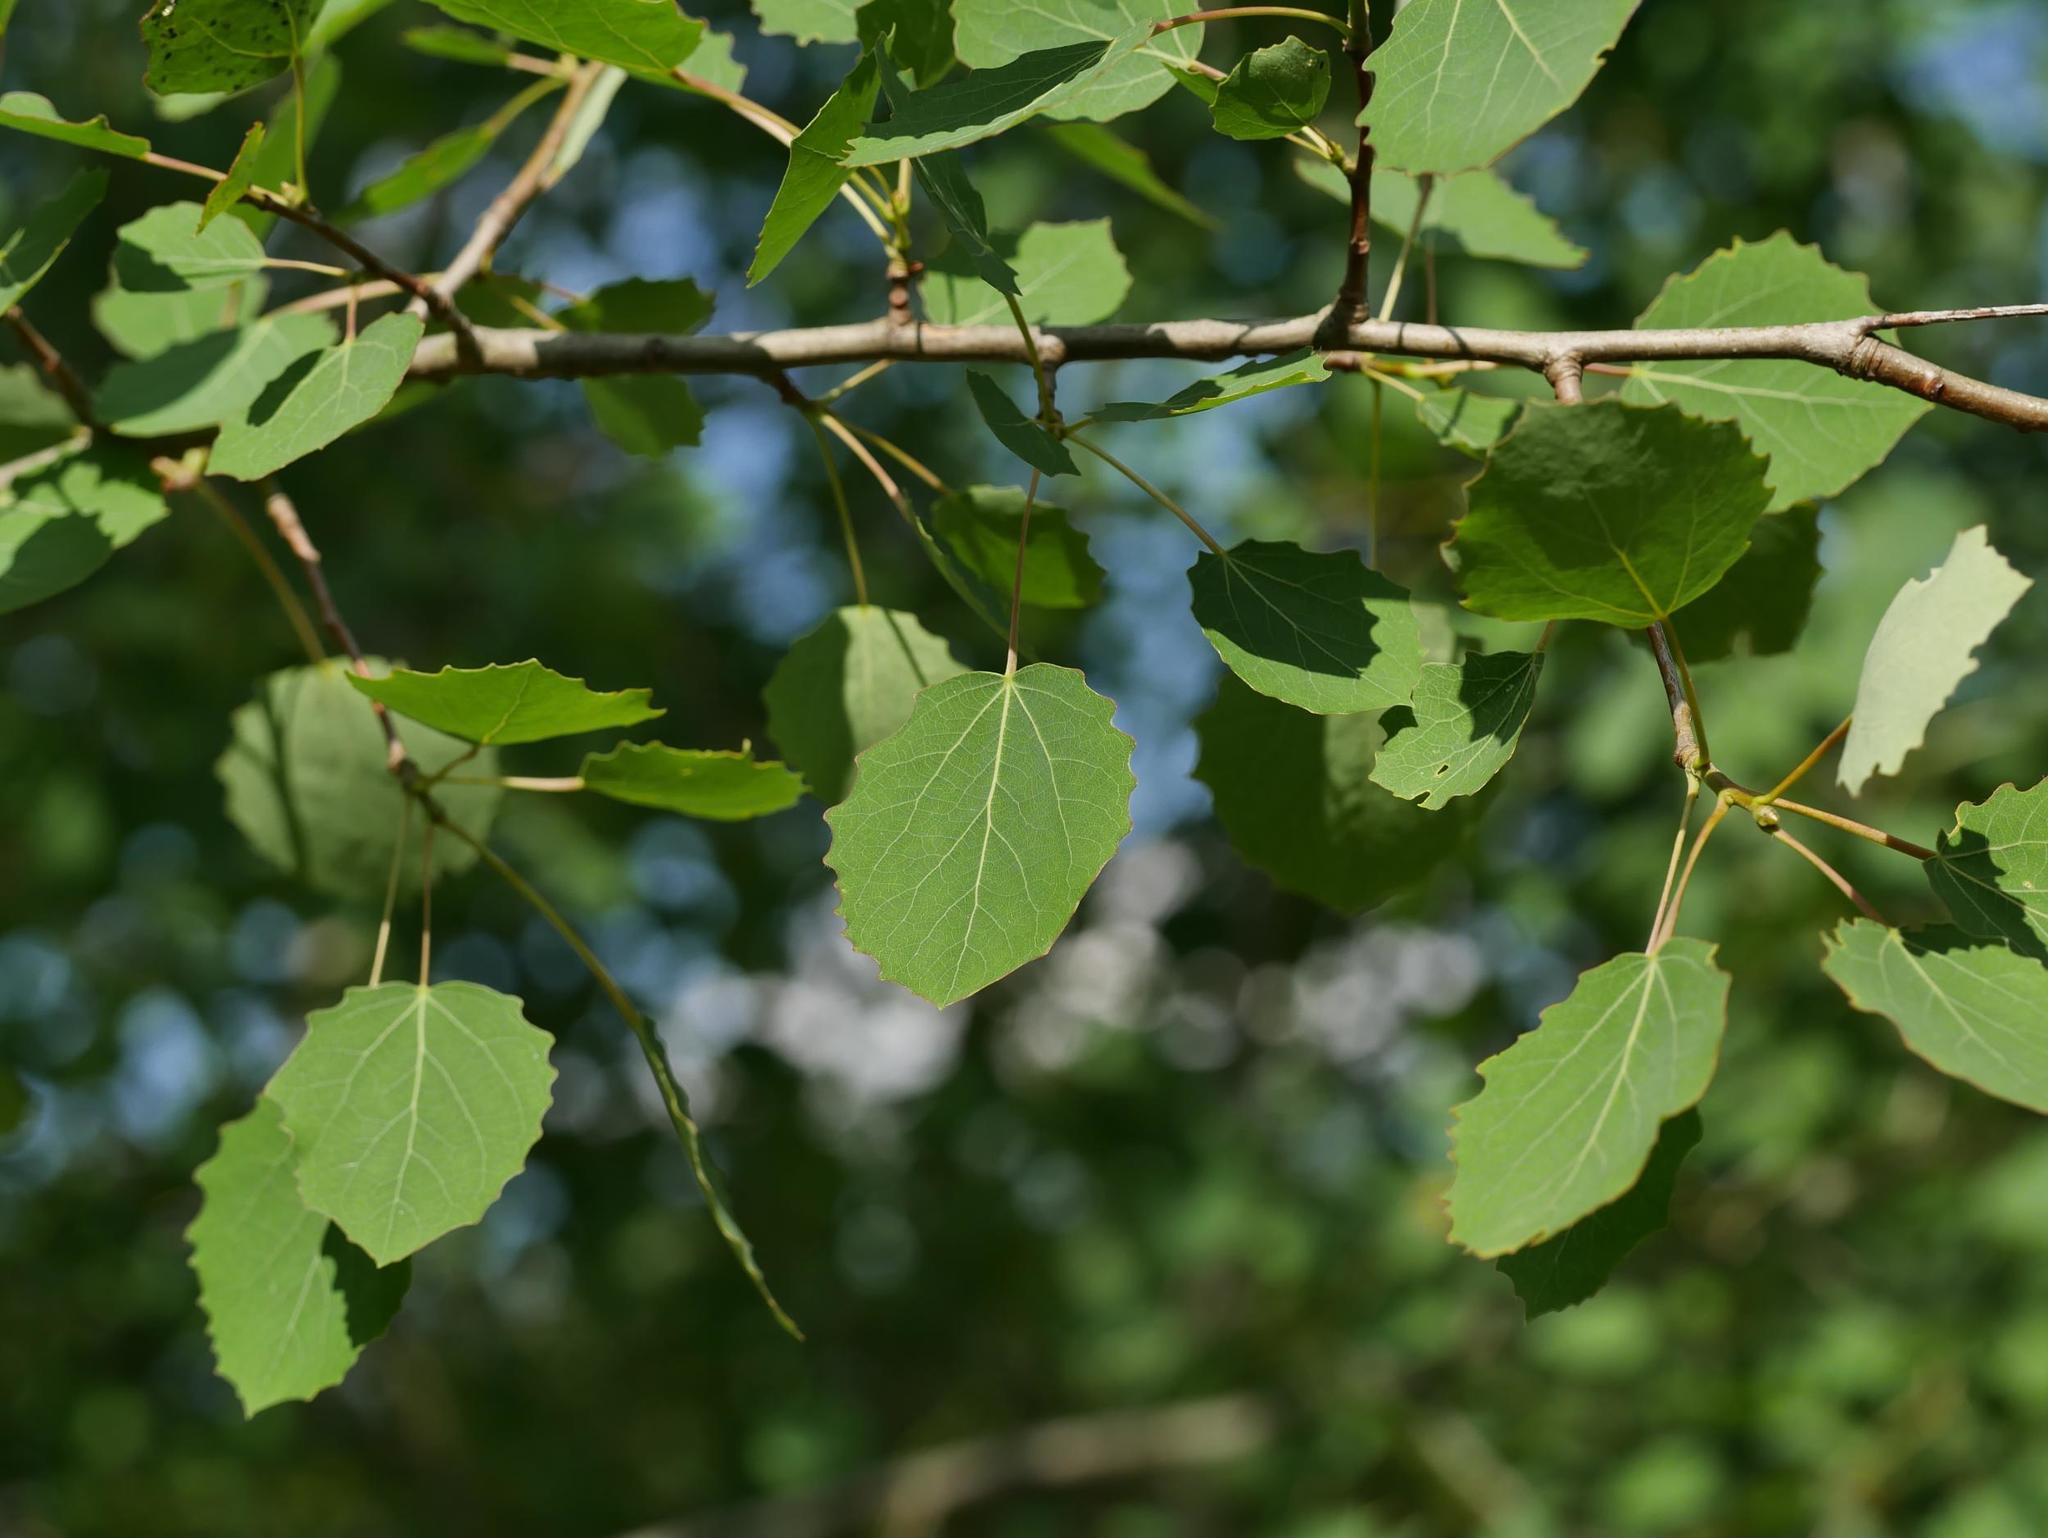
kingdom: Plantae
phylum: Tracheophyta
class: Magnoliopsida
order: Malpighiales
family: Salicaceae
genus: Populus
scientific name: Populus tremula
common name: European aspen
